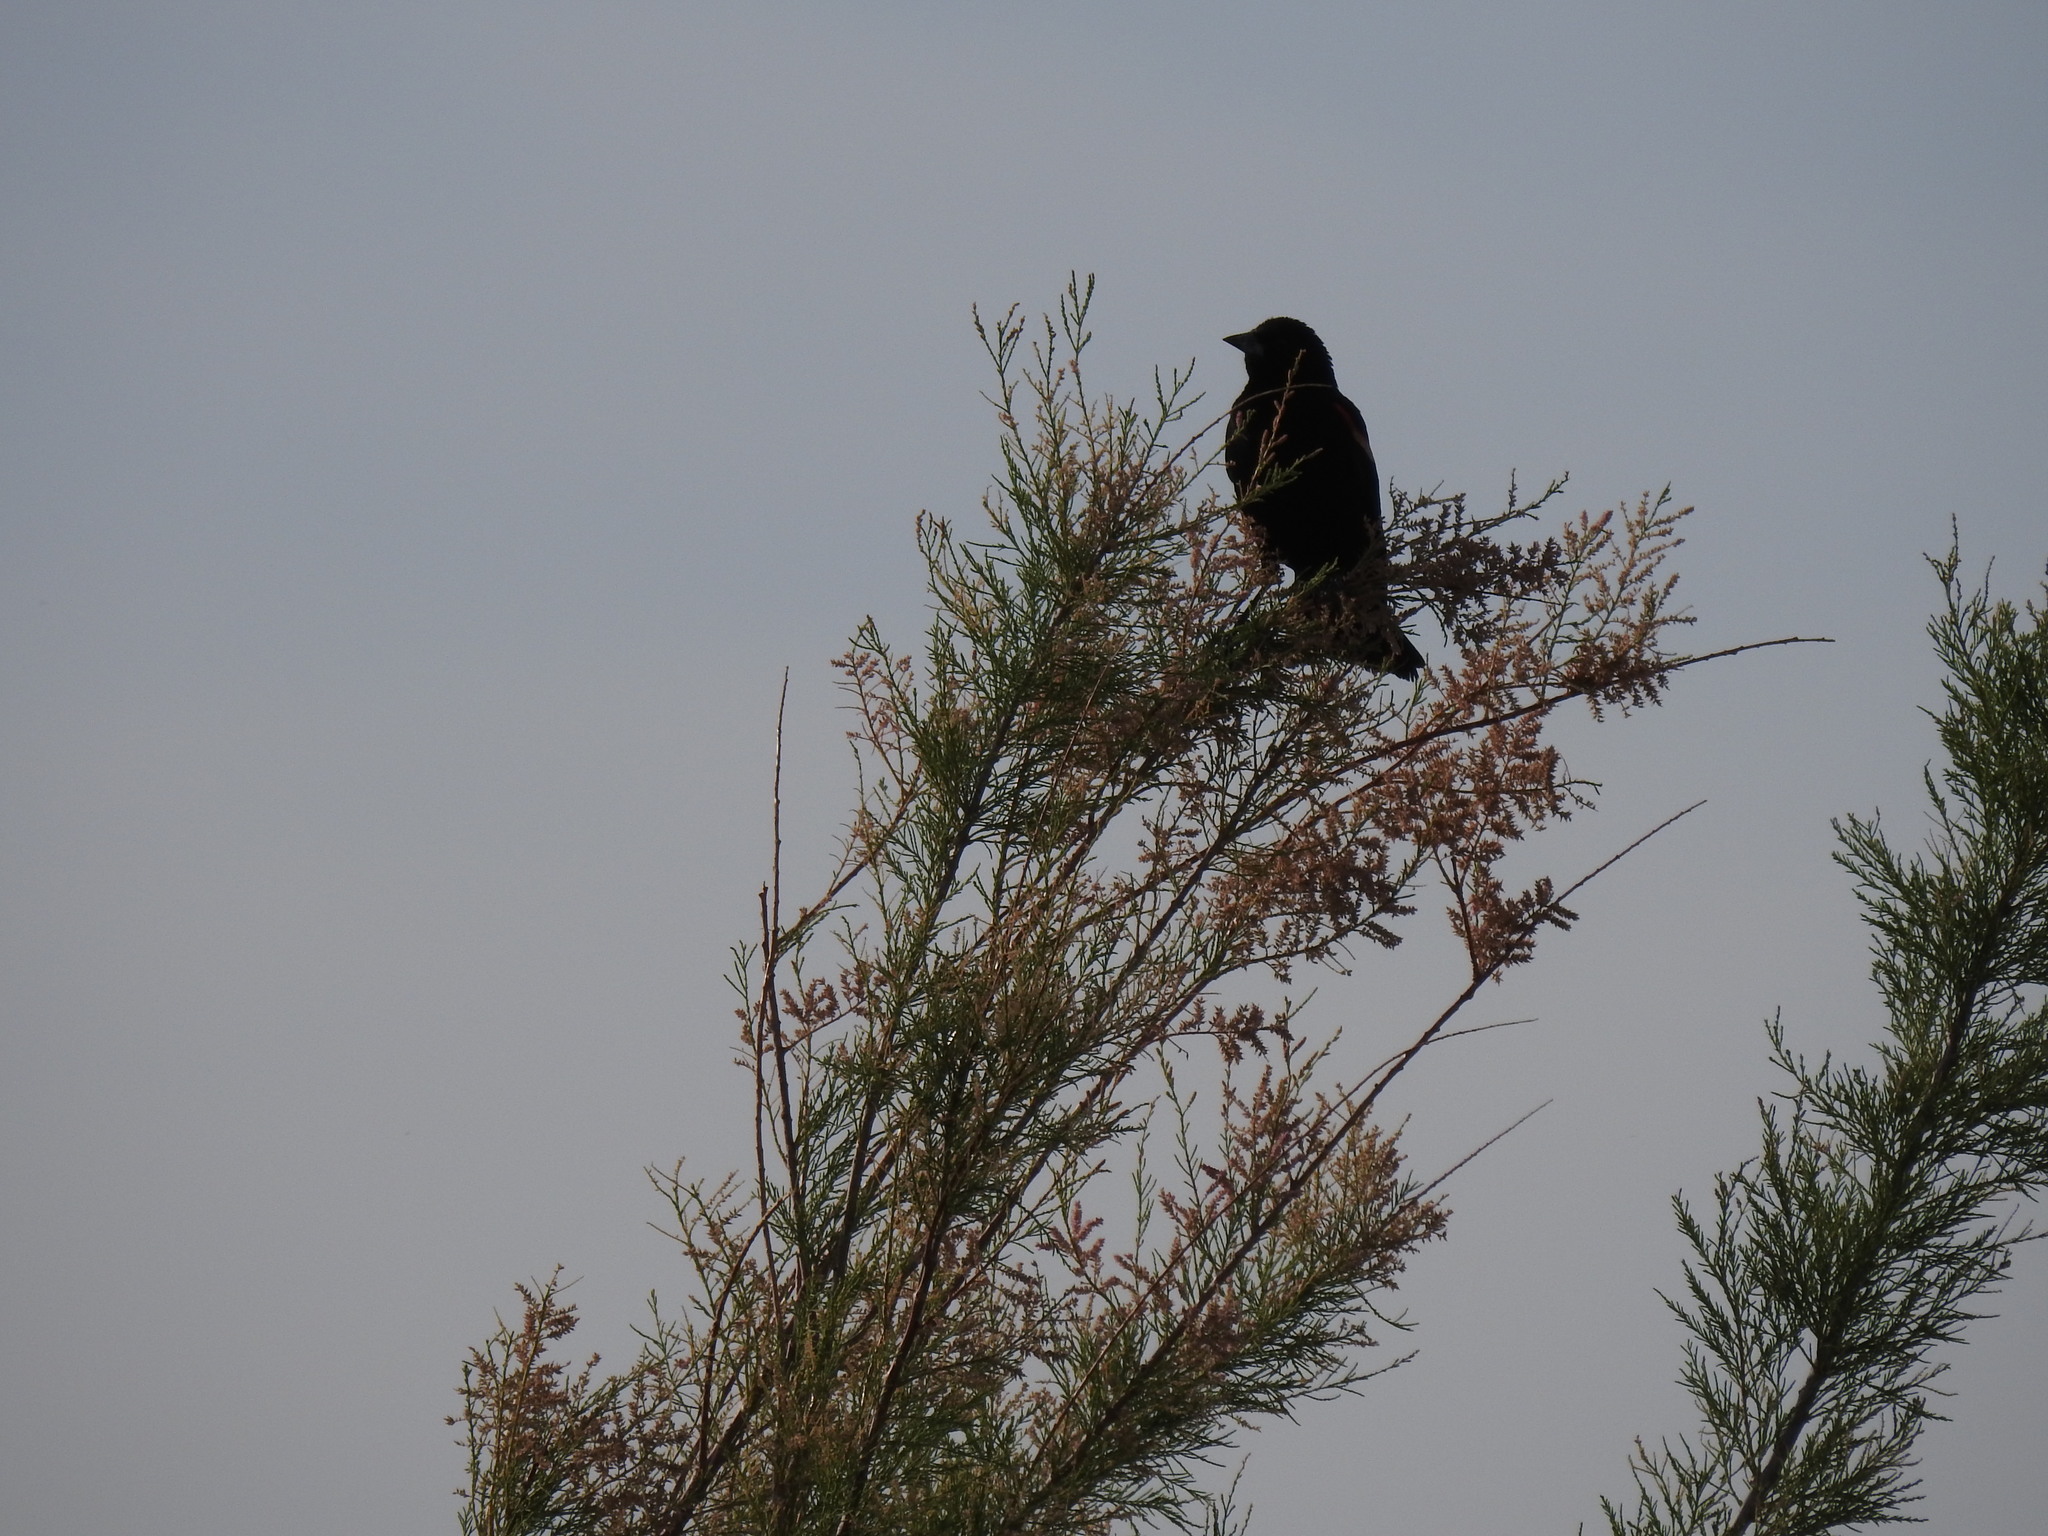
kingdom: Animalia
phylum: Chordata
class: Aves
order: Passeriformes
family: Icteridae
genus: Agelaius
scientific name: Agelaius phoeniceus
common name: Red-winged blackbird
